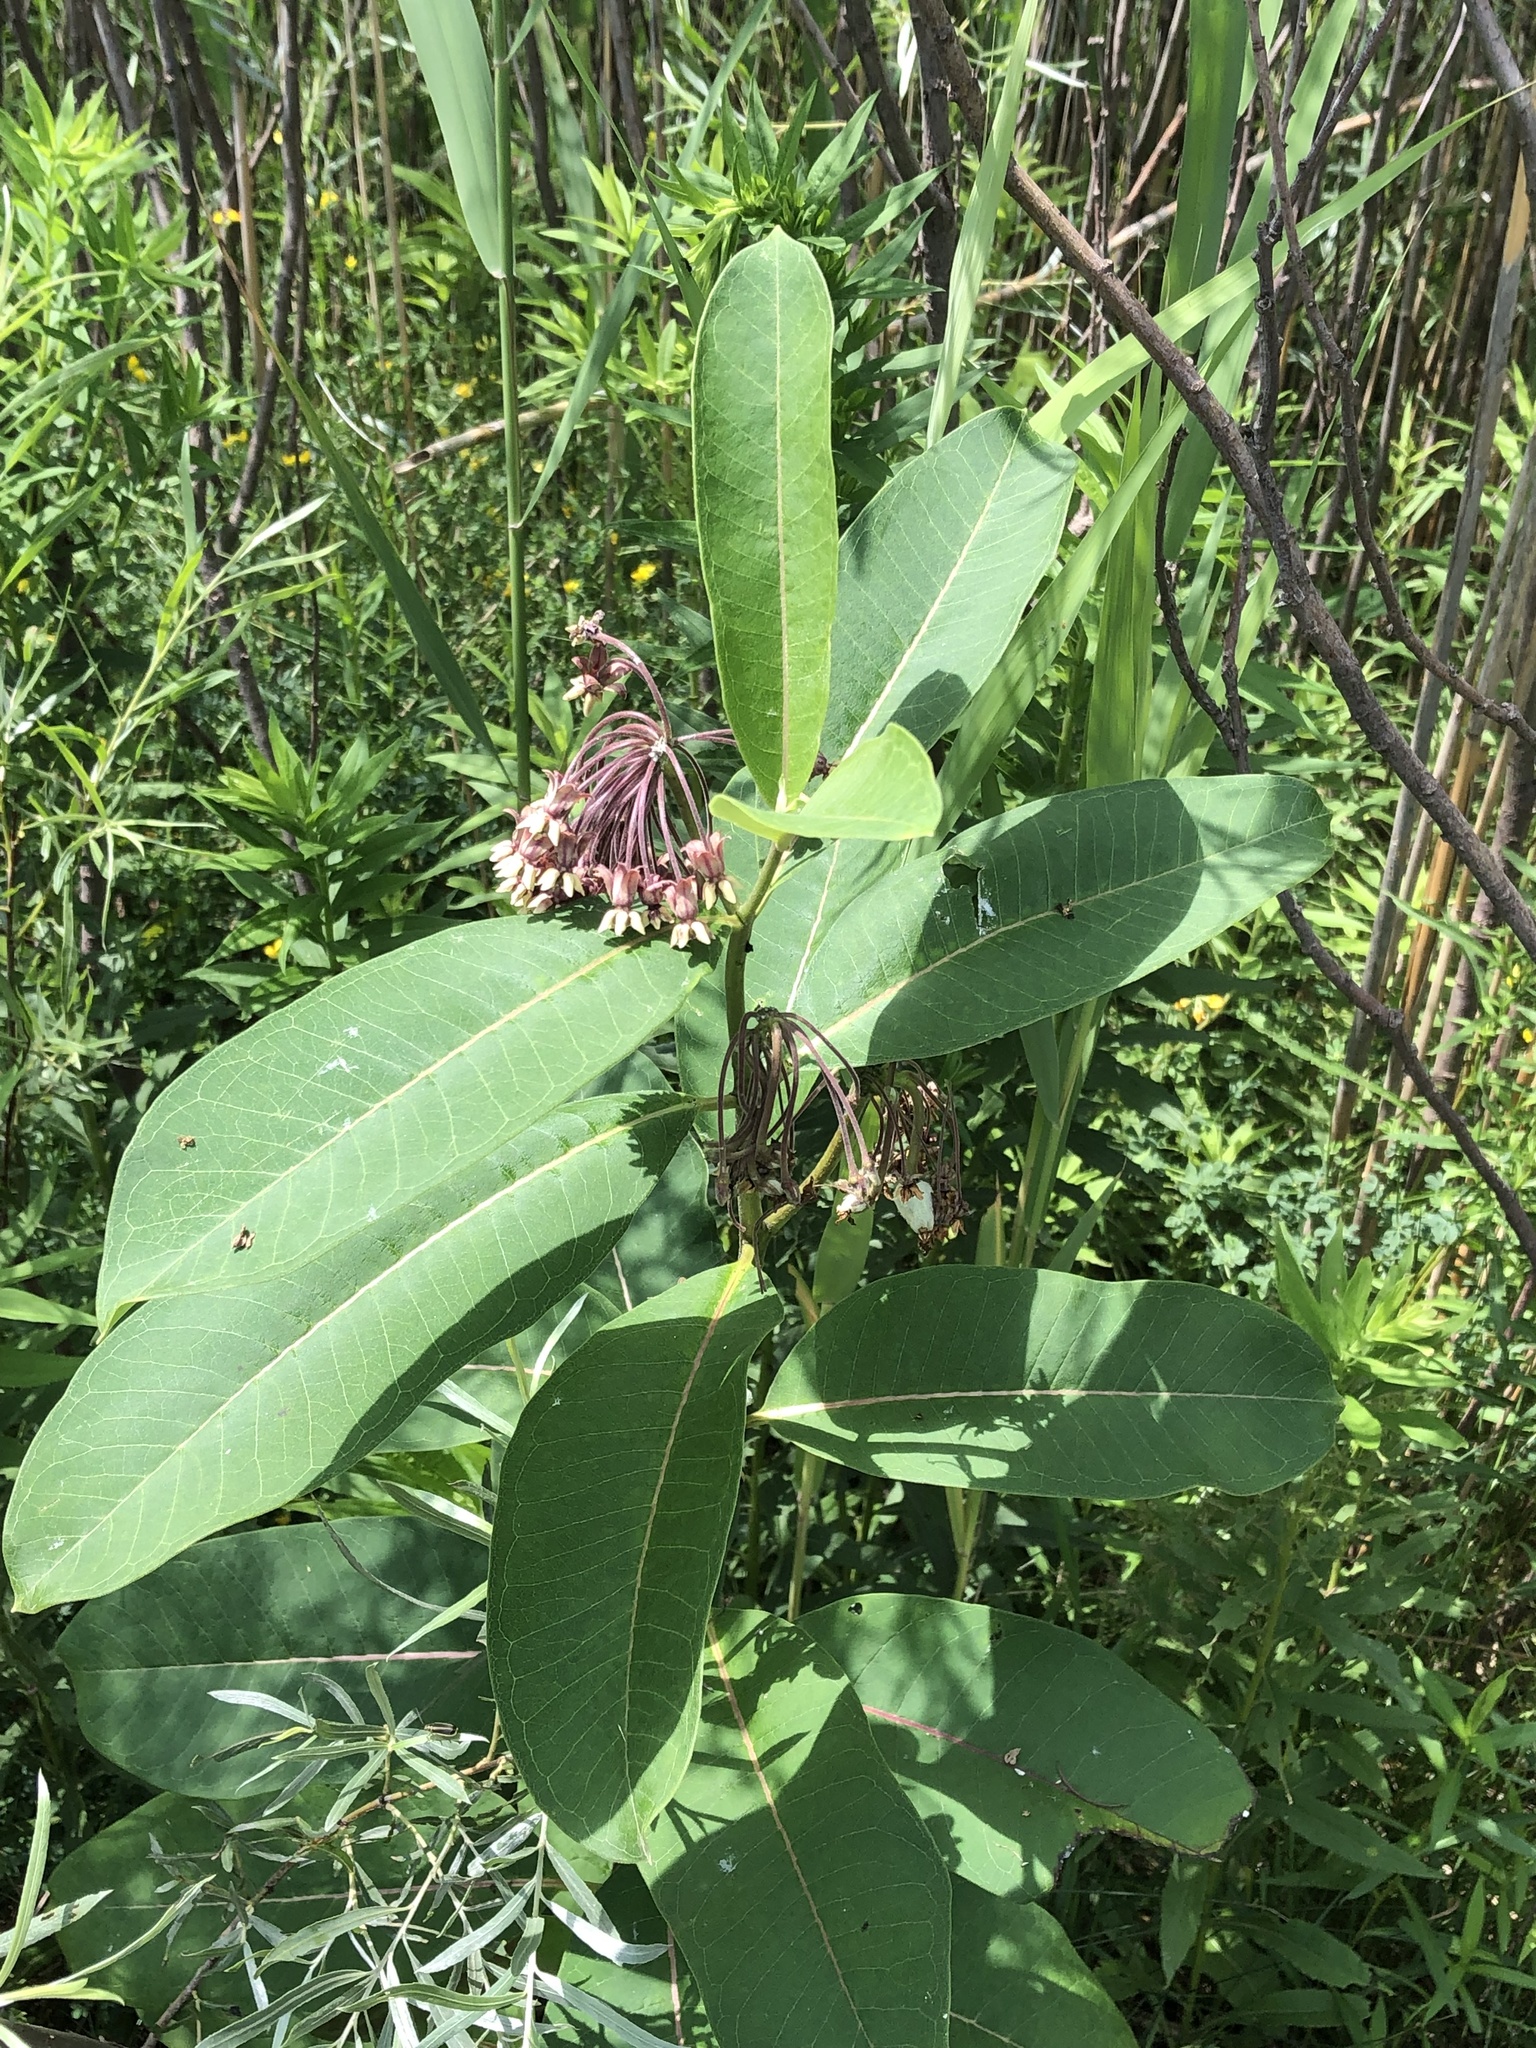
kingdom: Plantae
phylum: Tracheophyta
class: Magnoliopsida
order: Gentianales
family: Apocynaceae
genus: Asclepias
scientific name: Asclepias syriaca
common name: Common milkweed
